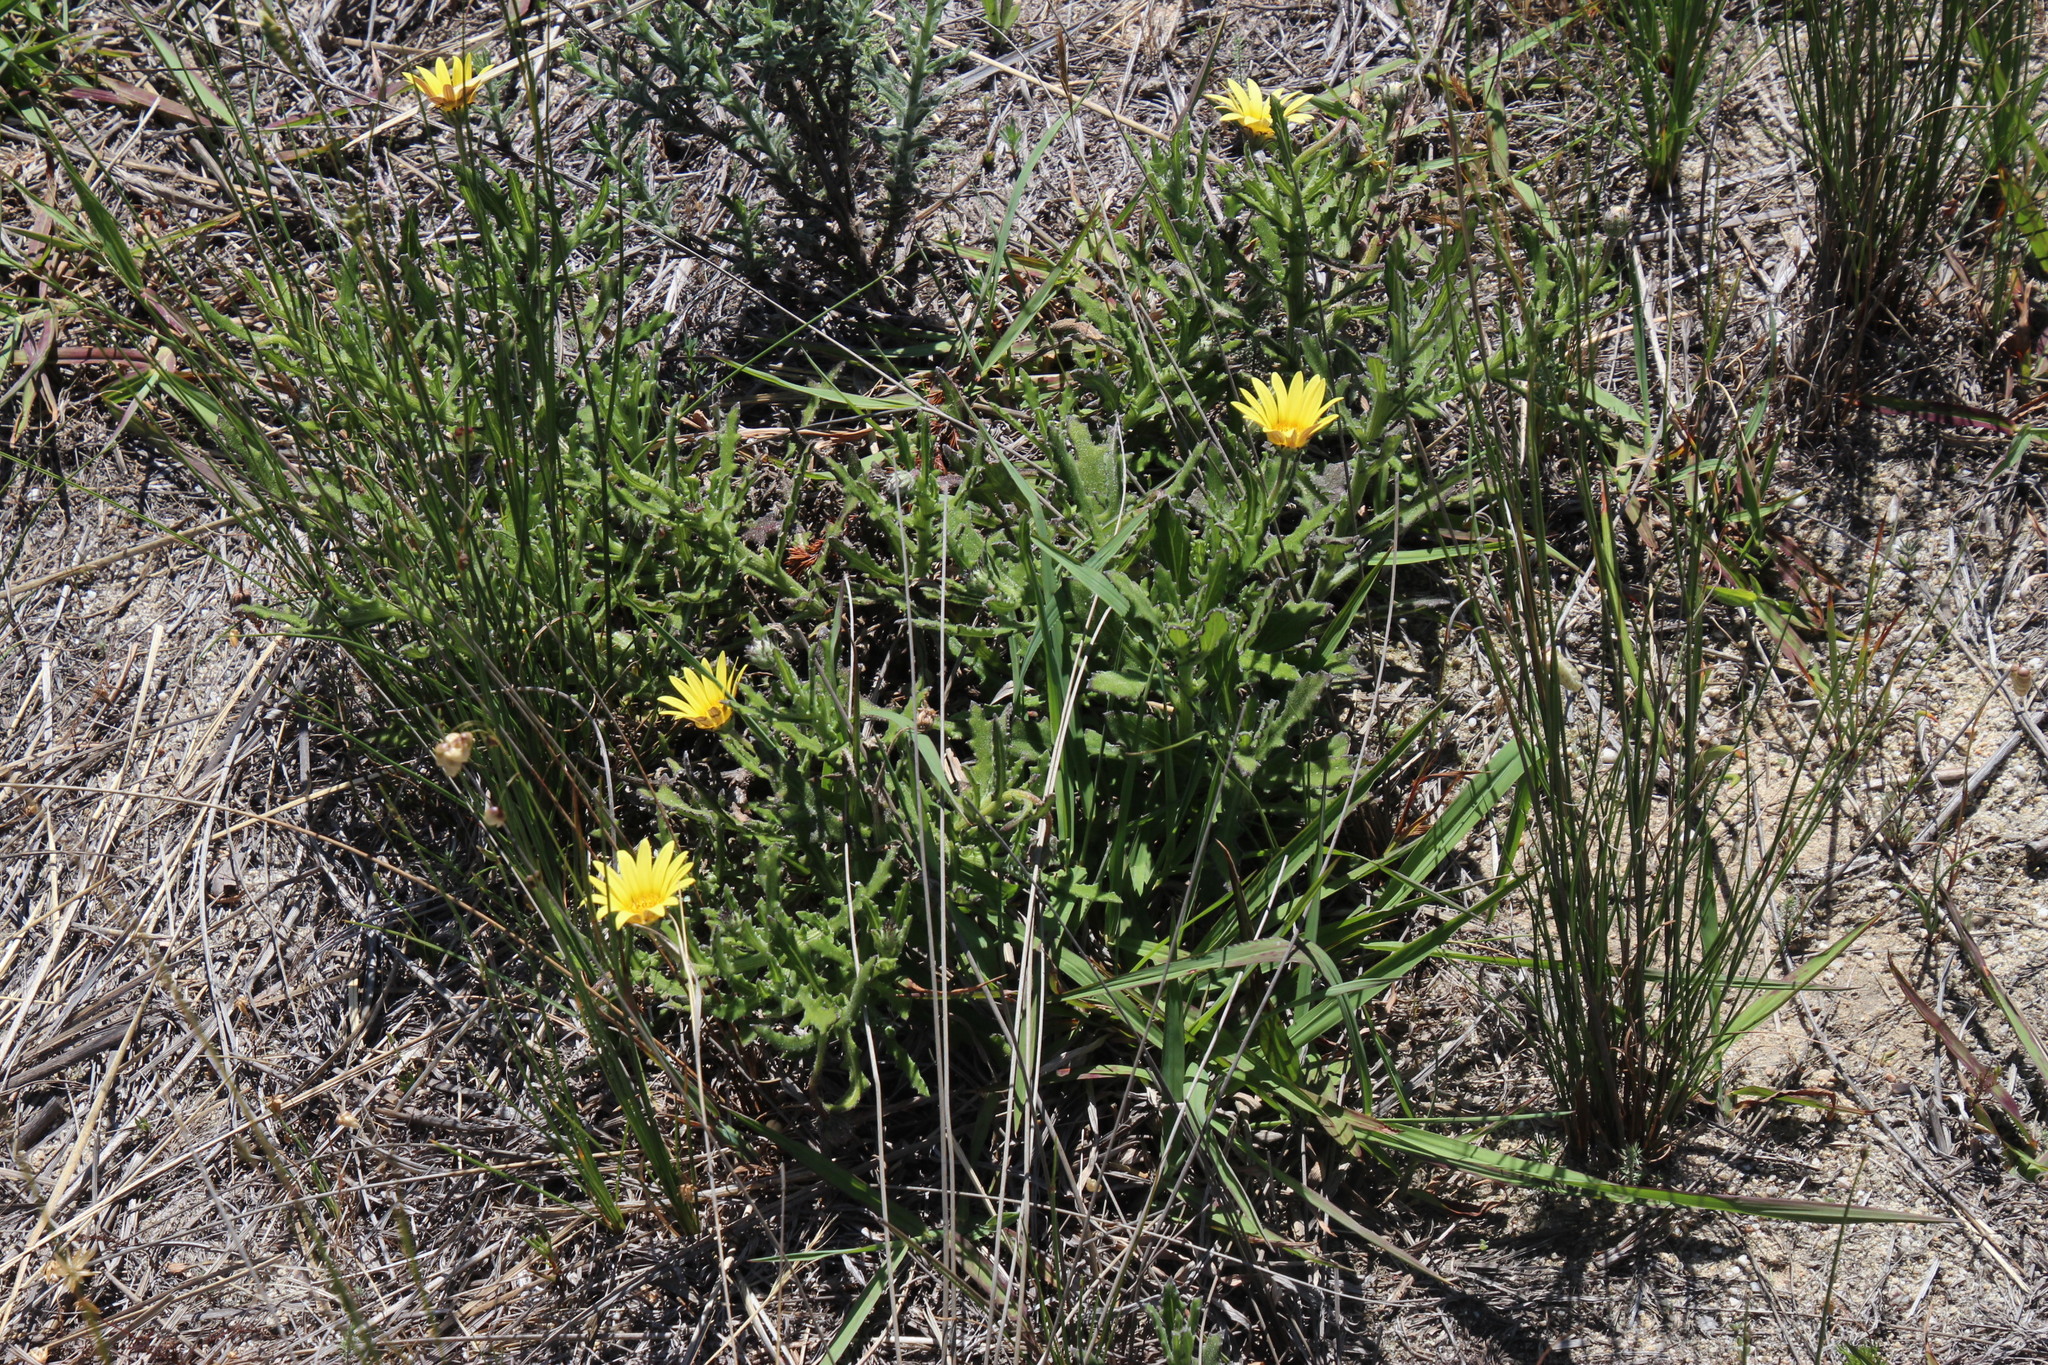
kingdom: Plantae
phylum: Tracheophyta
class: Magnoliopsida
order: Asterales
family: Asteraceae
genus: Arctotis
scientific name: Arctotis scabra
